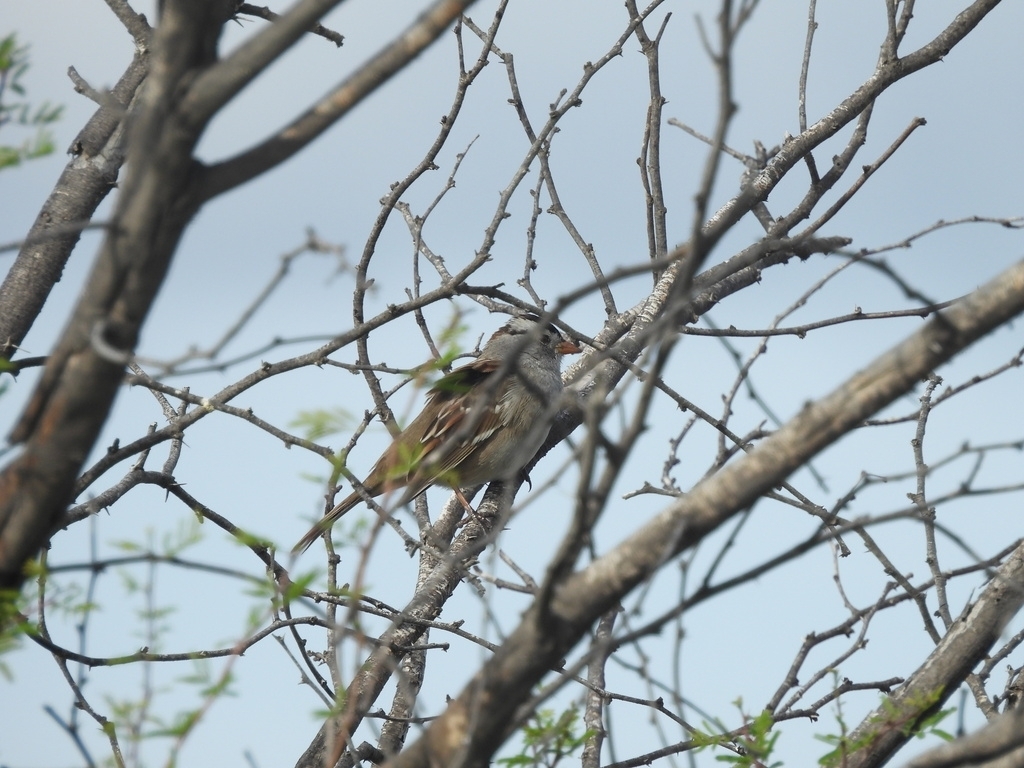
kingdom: Animalia
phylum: Chordata
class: Aves
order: Passeriformes
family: Passerellidae
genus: Zonotrichia
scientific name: Zonotrichia leucophrys
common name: White-crowned sparrow
